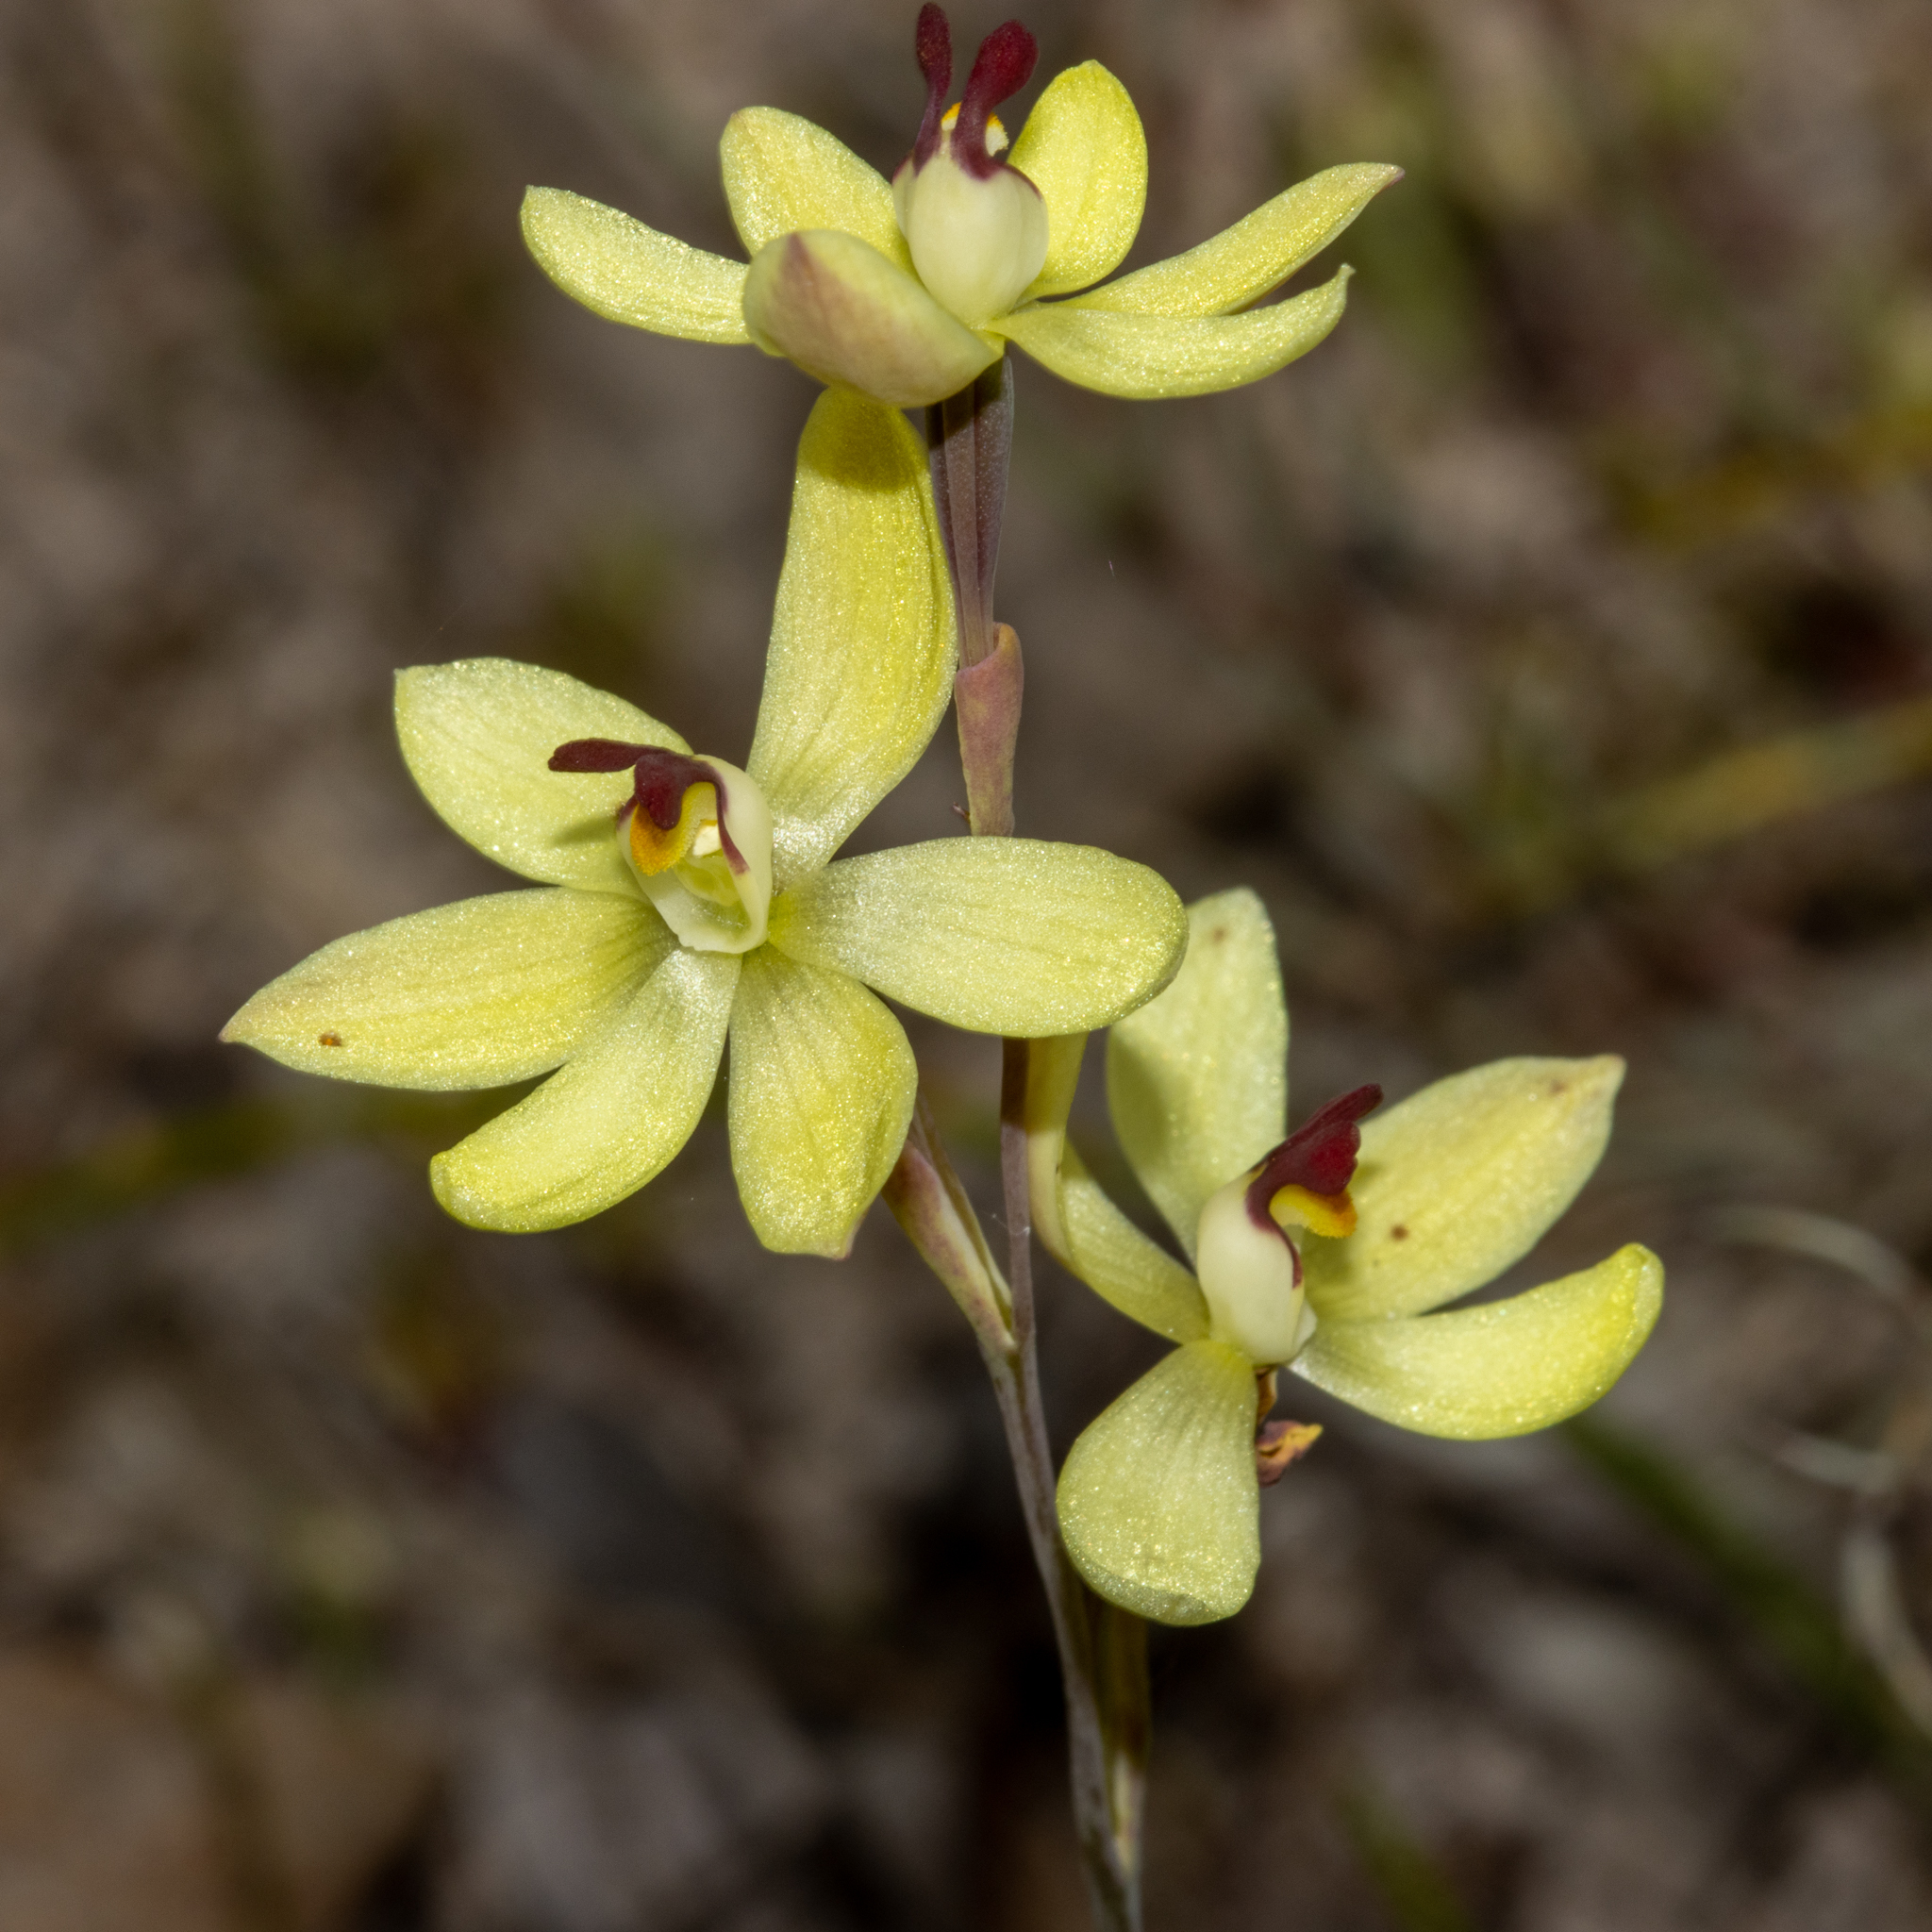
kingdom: Plantae
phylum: Tracheophyta
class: Liliopsida
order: Asparagales
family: Orchidaceae
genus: Thelymitra
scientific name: Thelymitra antennifera
